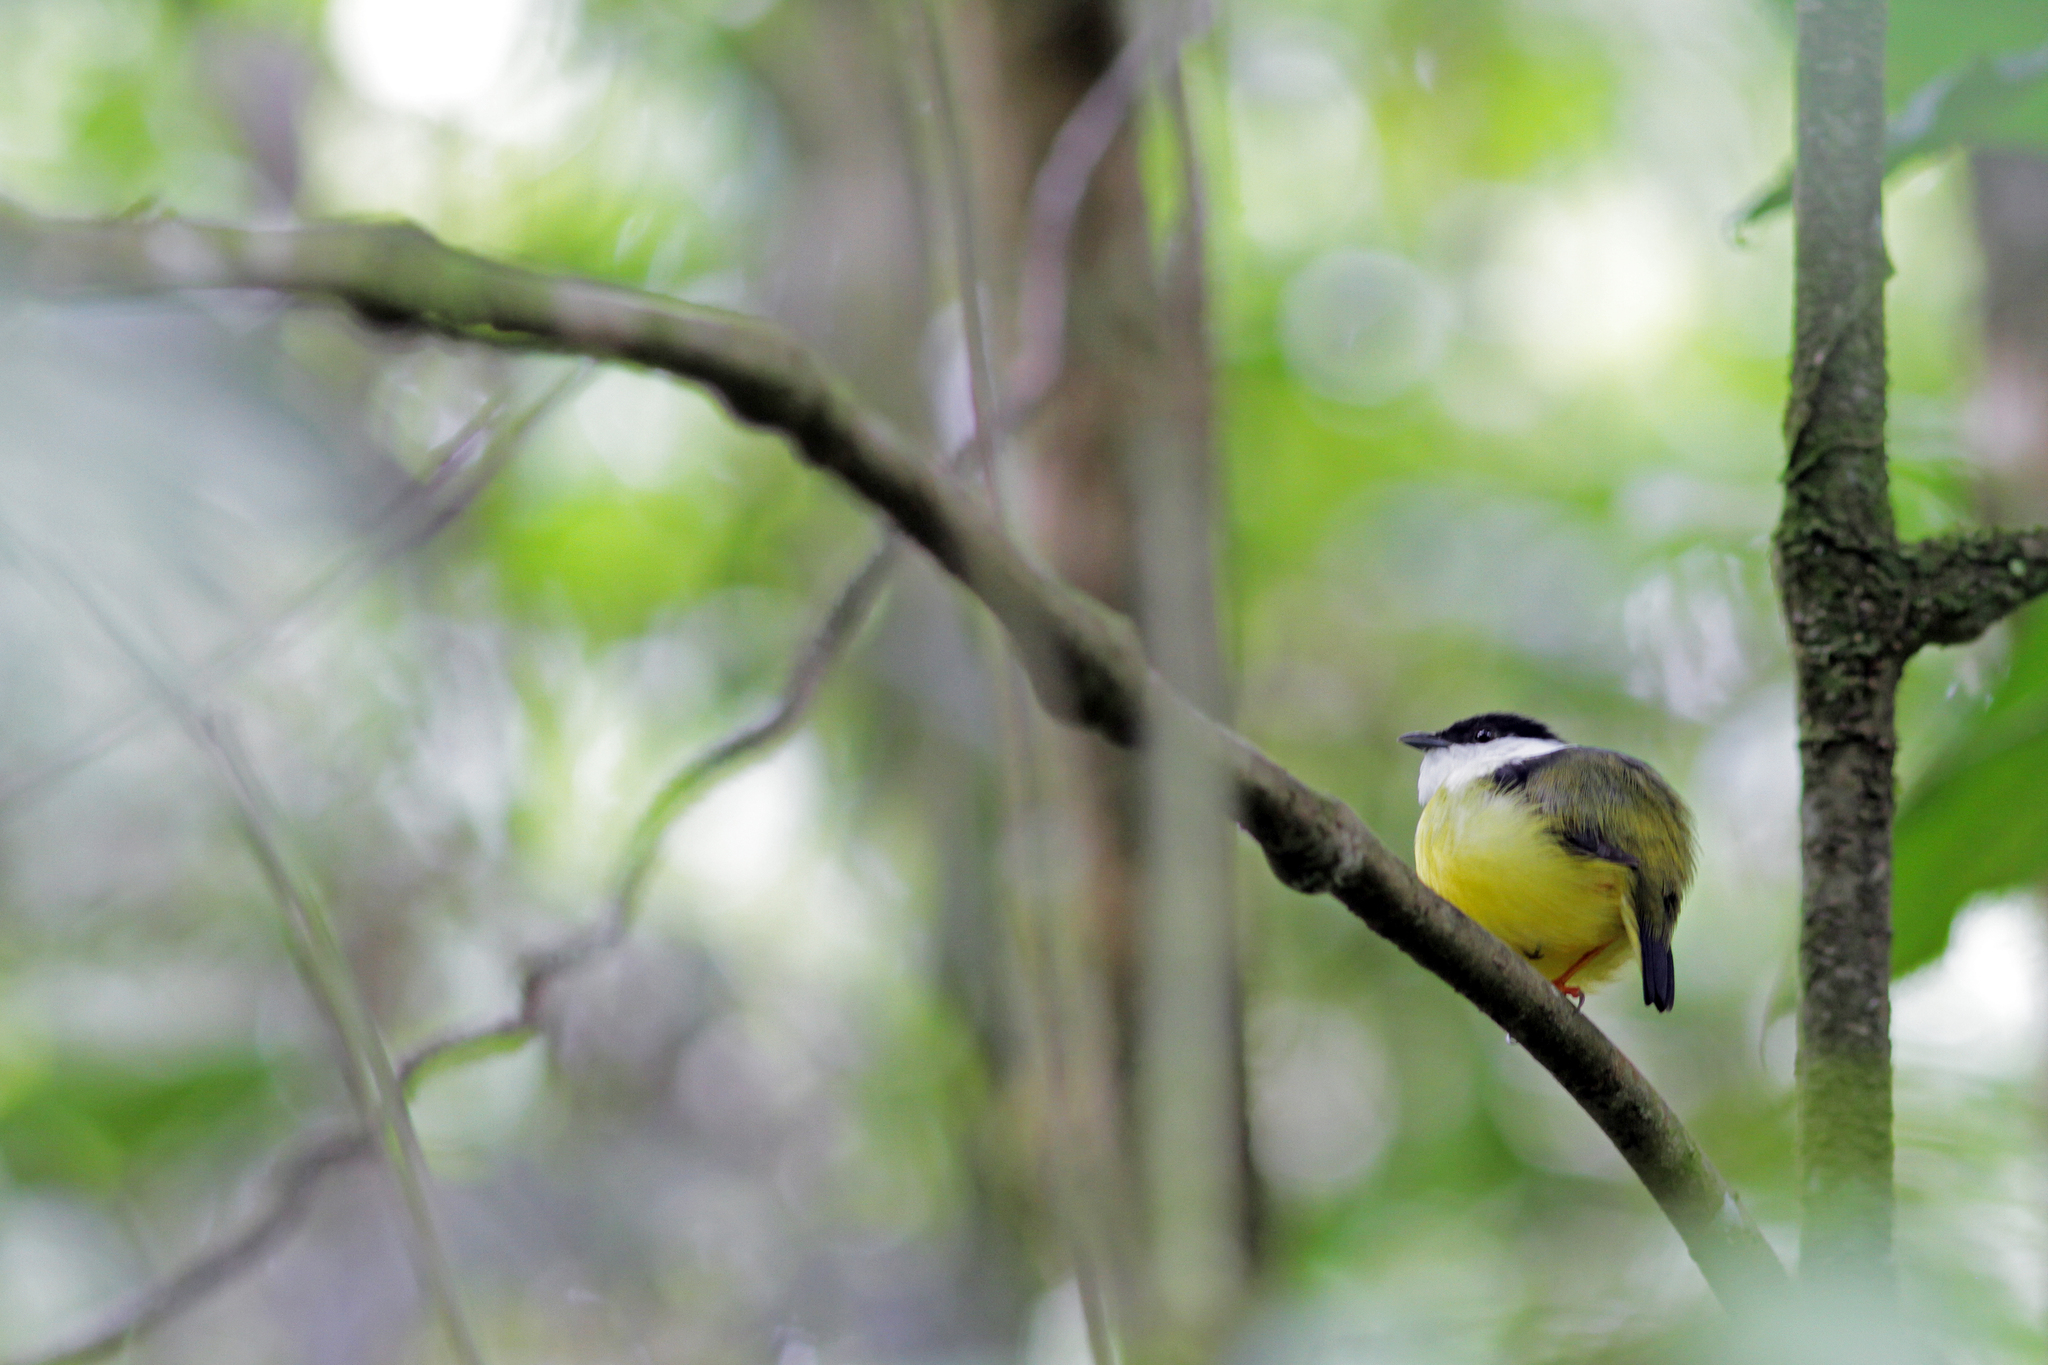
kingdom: Animalia
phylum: Chordata
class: Aves
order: Passeriformes
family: Pipridae
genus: Manacus
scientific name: Manacus candei
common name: White-collared manakin
